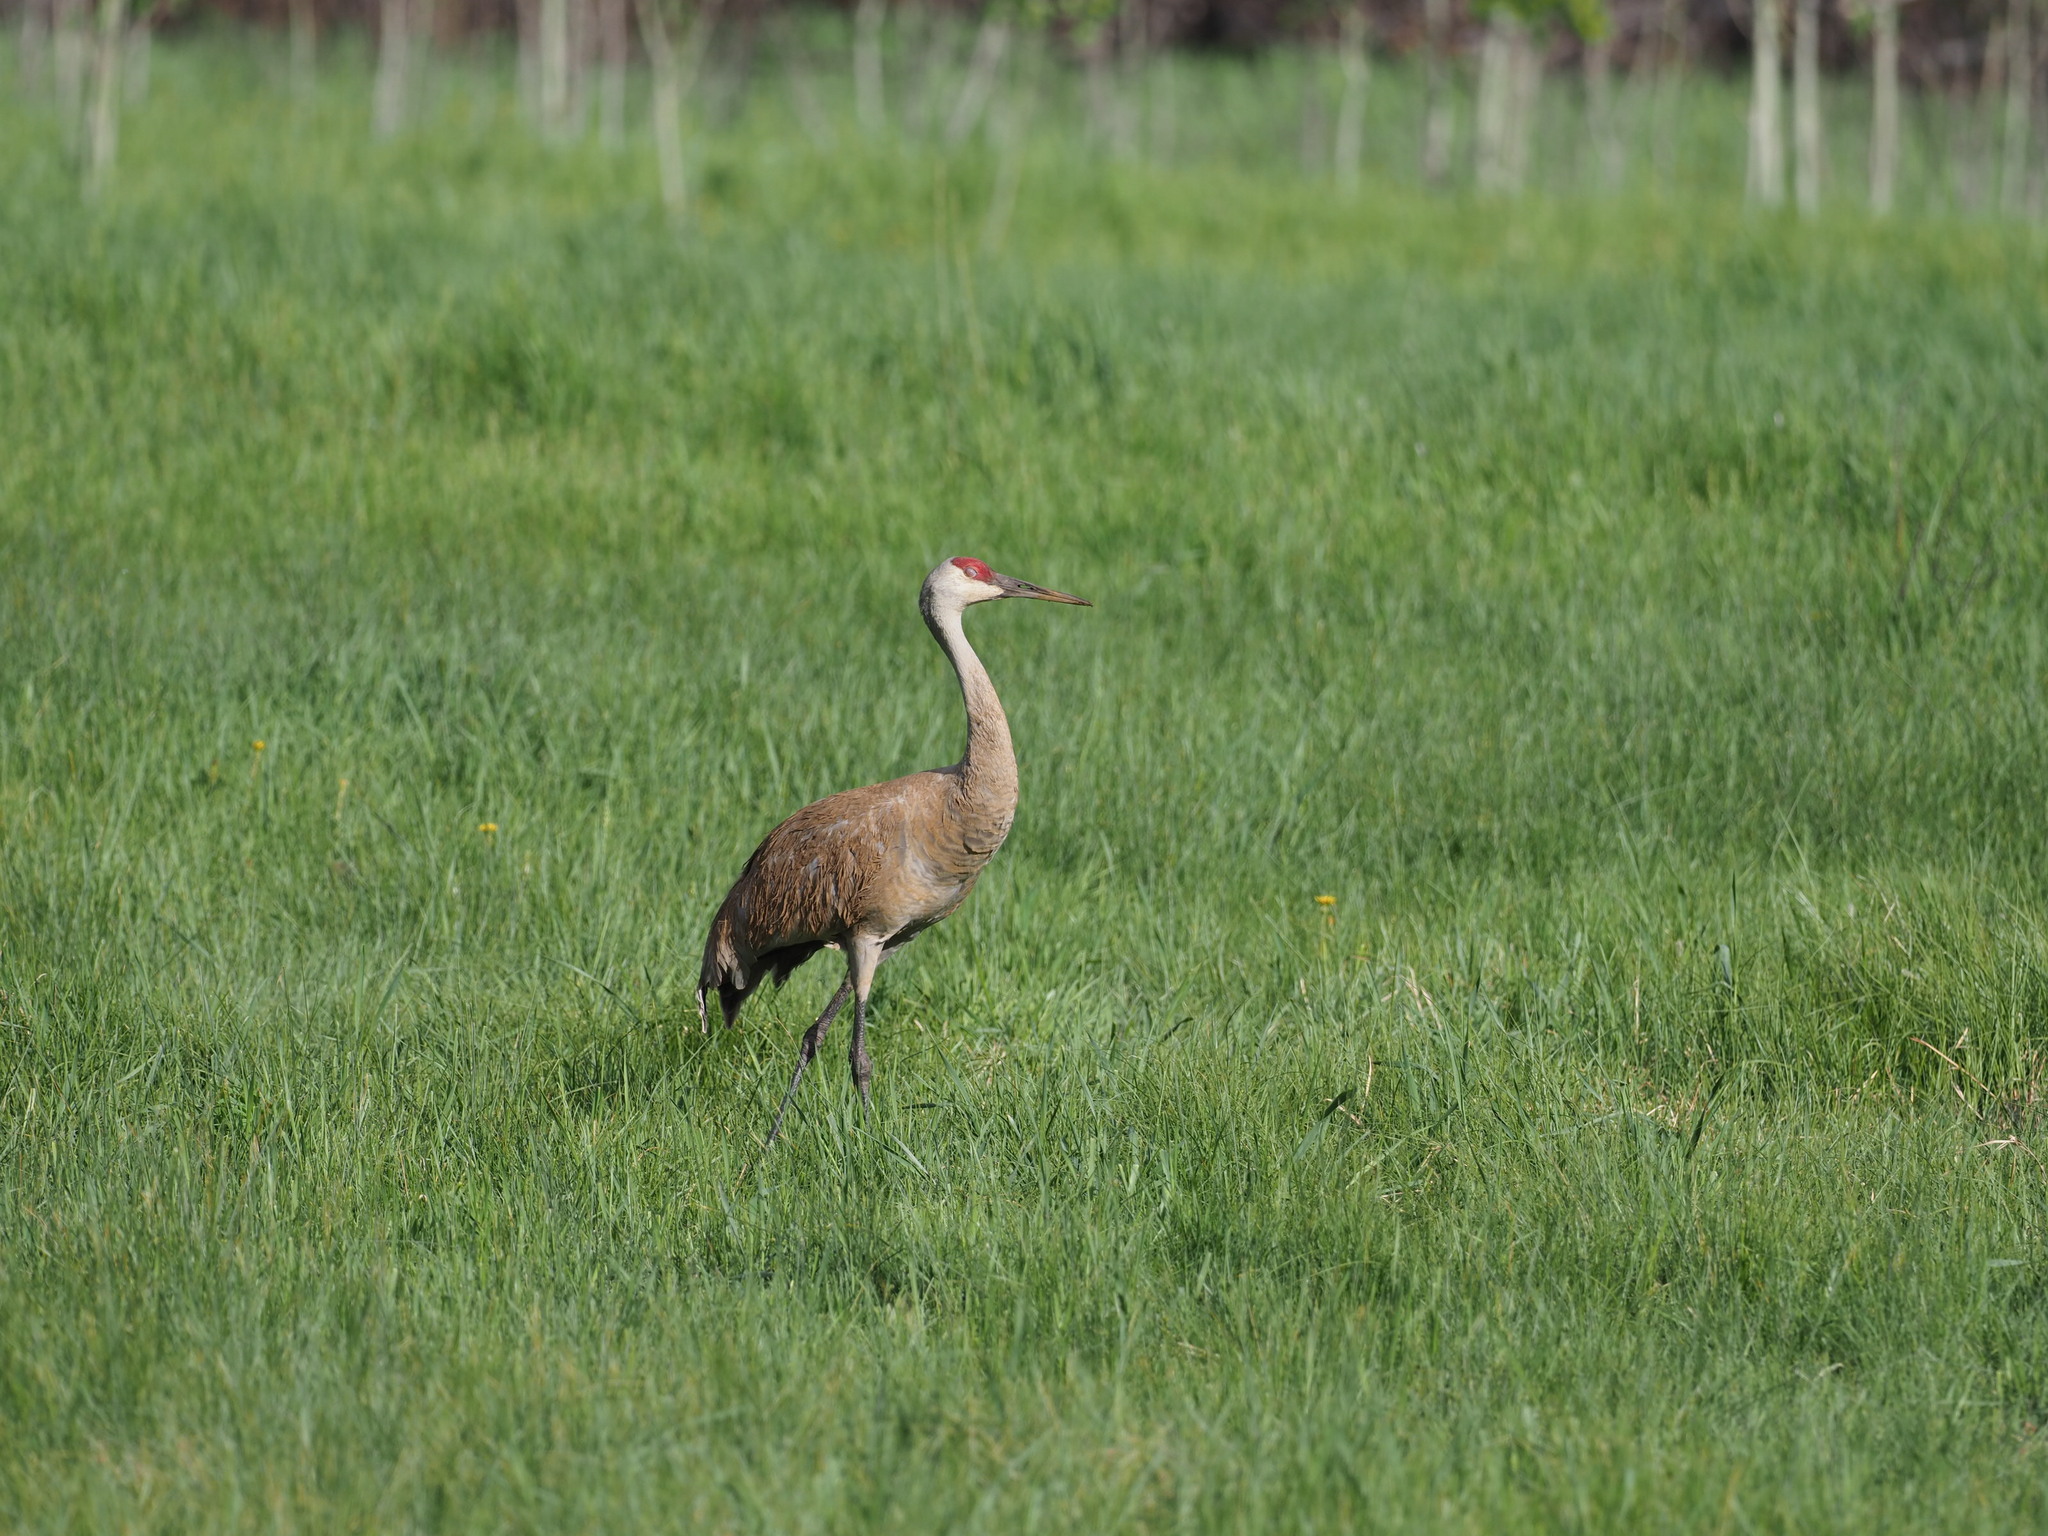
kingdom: Animalia
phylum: Chordata
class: Aves
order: Gruiformes
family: Gruidae
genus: Grus
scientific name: Grus canadensis
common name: Sandhill crane
